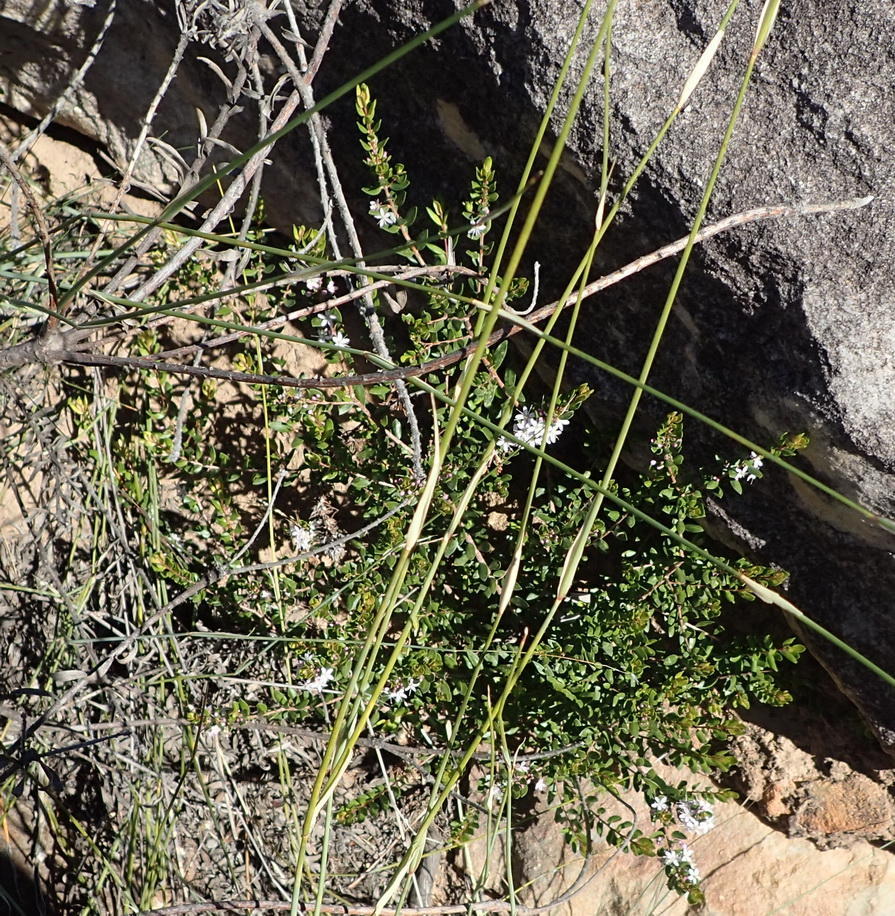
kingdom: Plantae
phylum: Tracheophyta
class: Magnoliopsida
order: Sapindales
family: Rutaceae
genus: Agathosma
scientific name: Agathosma ovata
